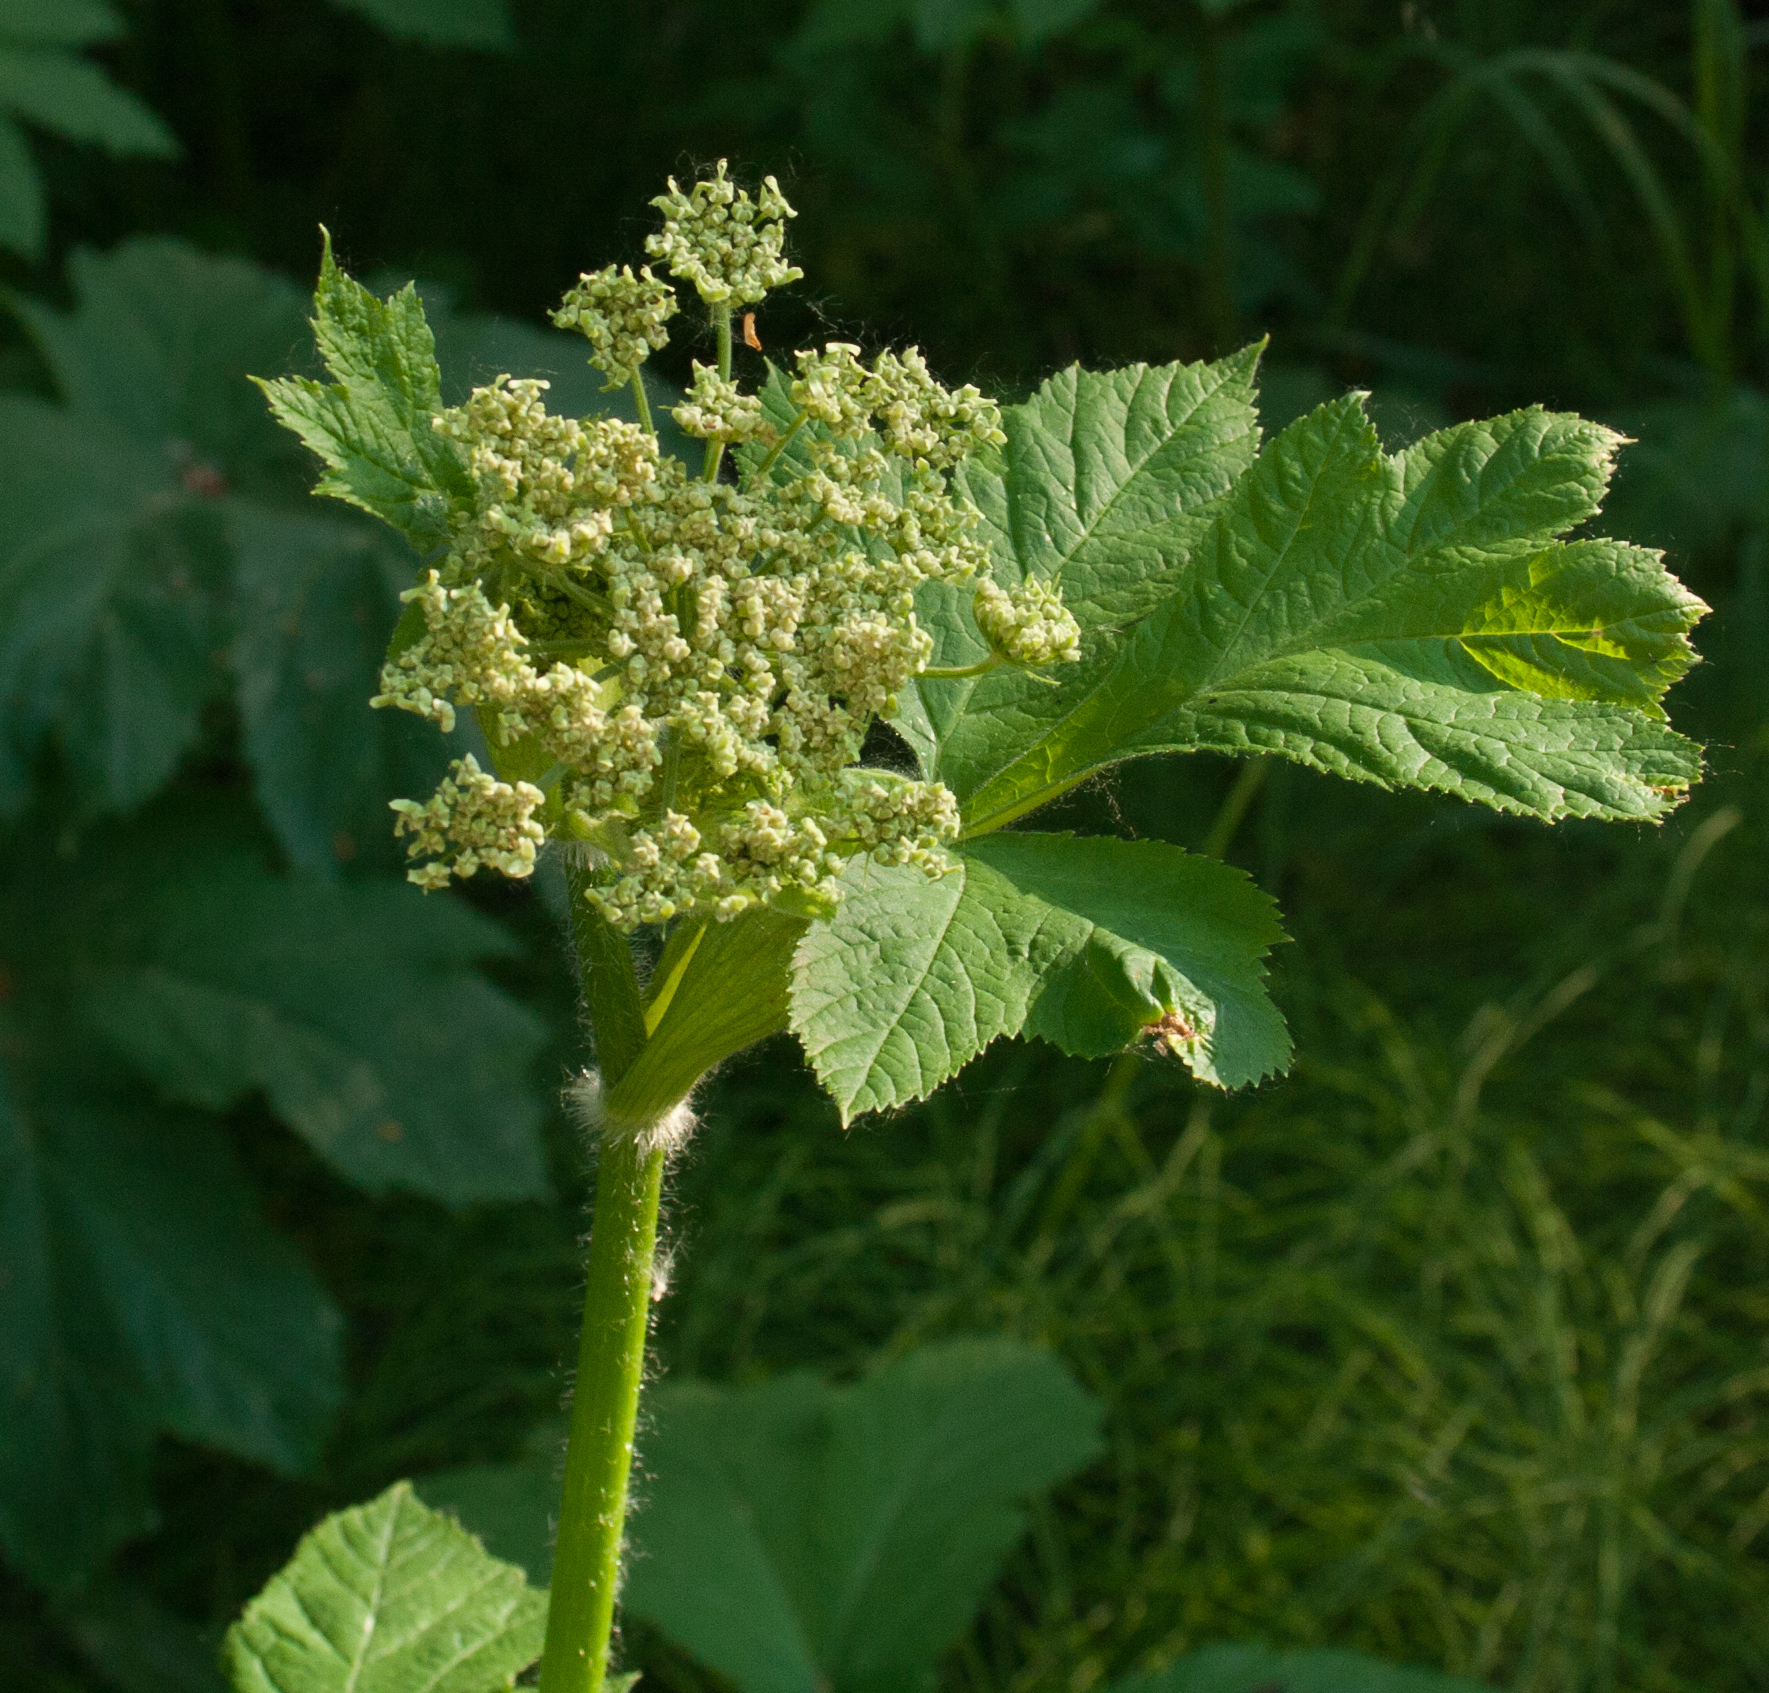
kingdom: Plantae
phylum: Tracheophyta
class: Magnoliopsida
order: Apiales
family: Apiaceae
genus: Heracleum
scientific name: Heracleum maximum
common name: American cow parsnip
